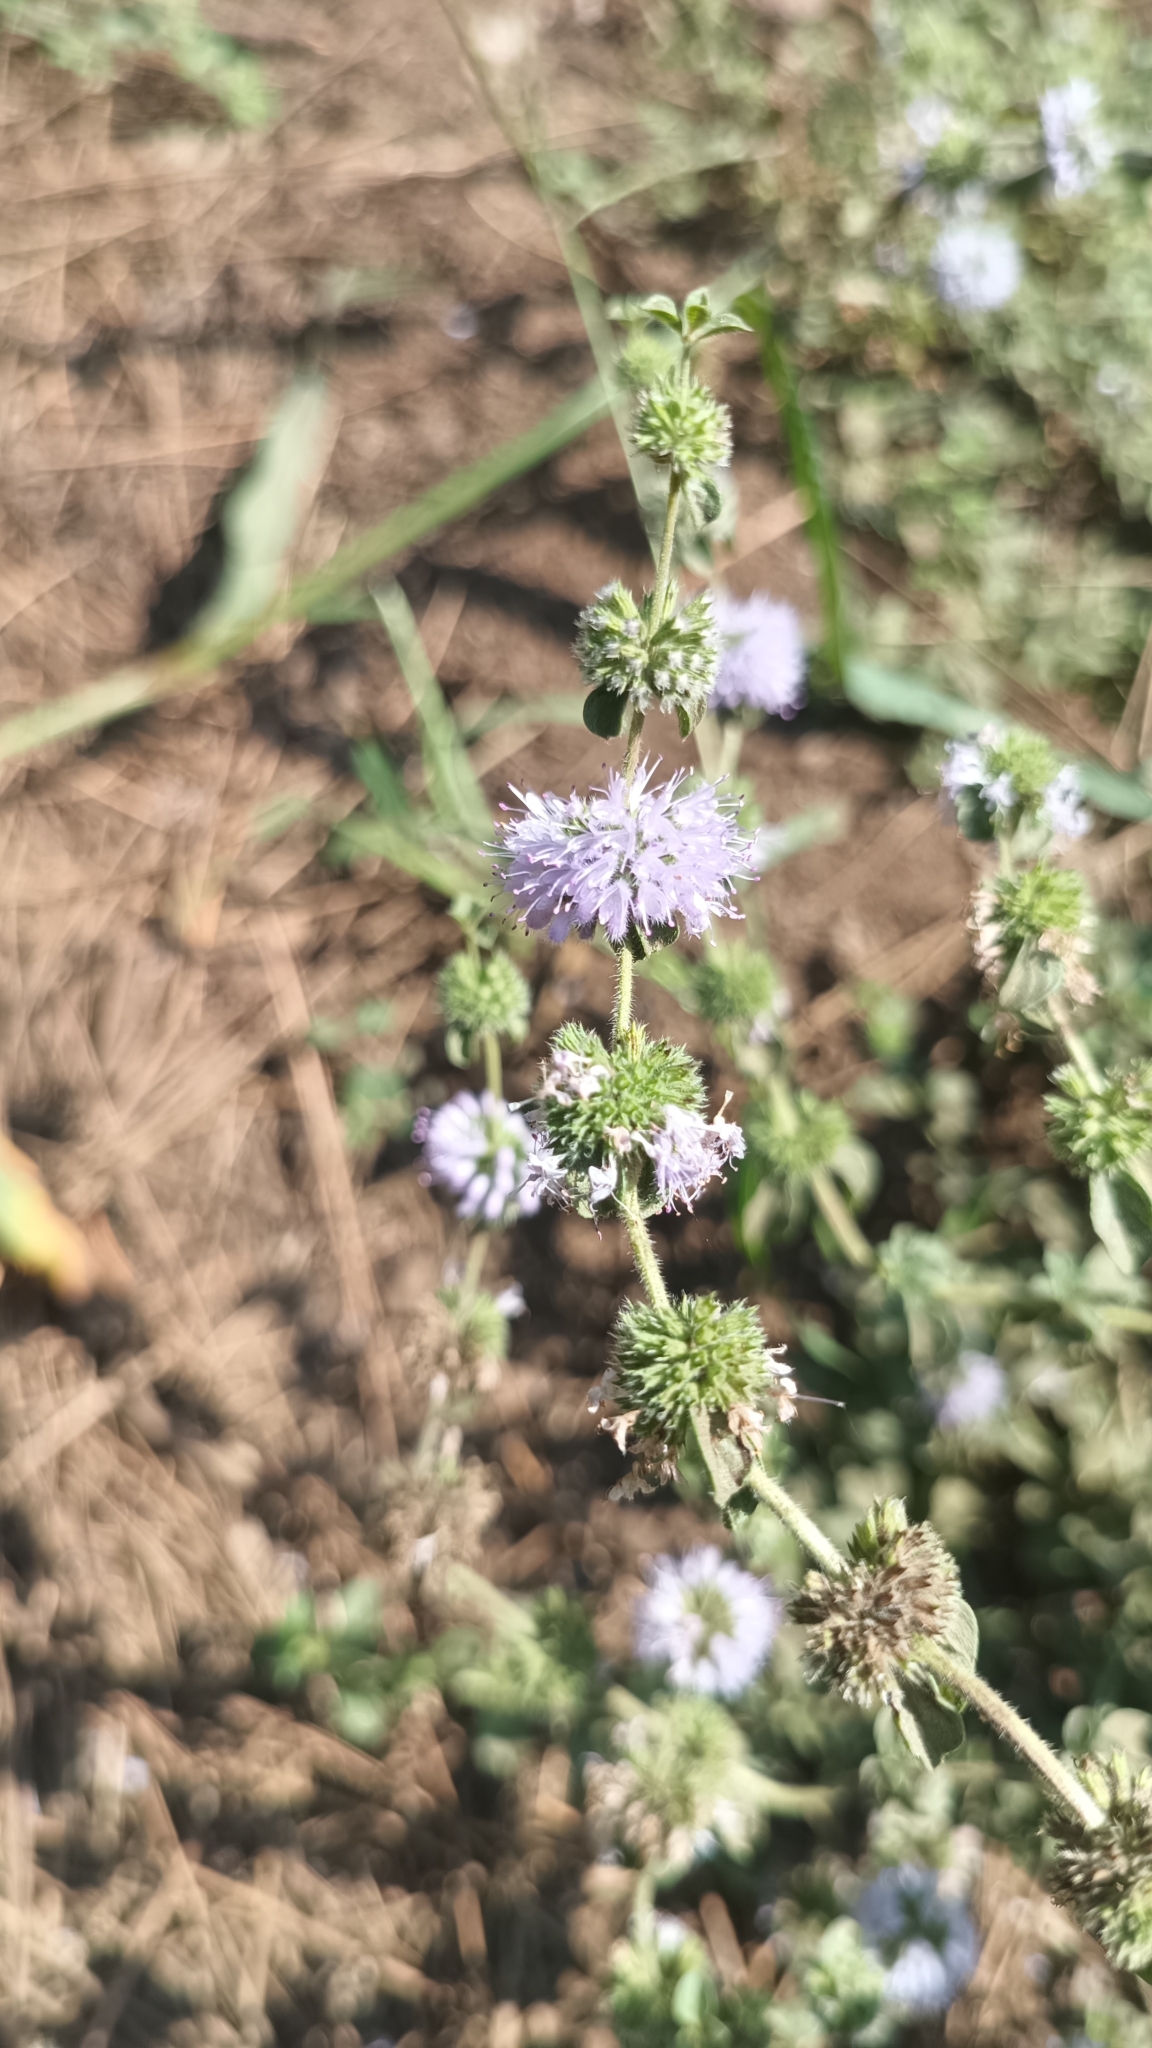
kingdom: Plantae
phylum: Tracheophyta
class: Magnoliopsida
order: Lamiales
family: Lamiaceae
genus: Mentha
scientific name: Mentha pulegium
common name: Pennyroyal
